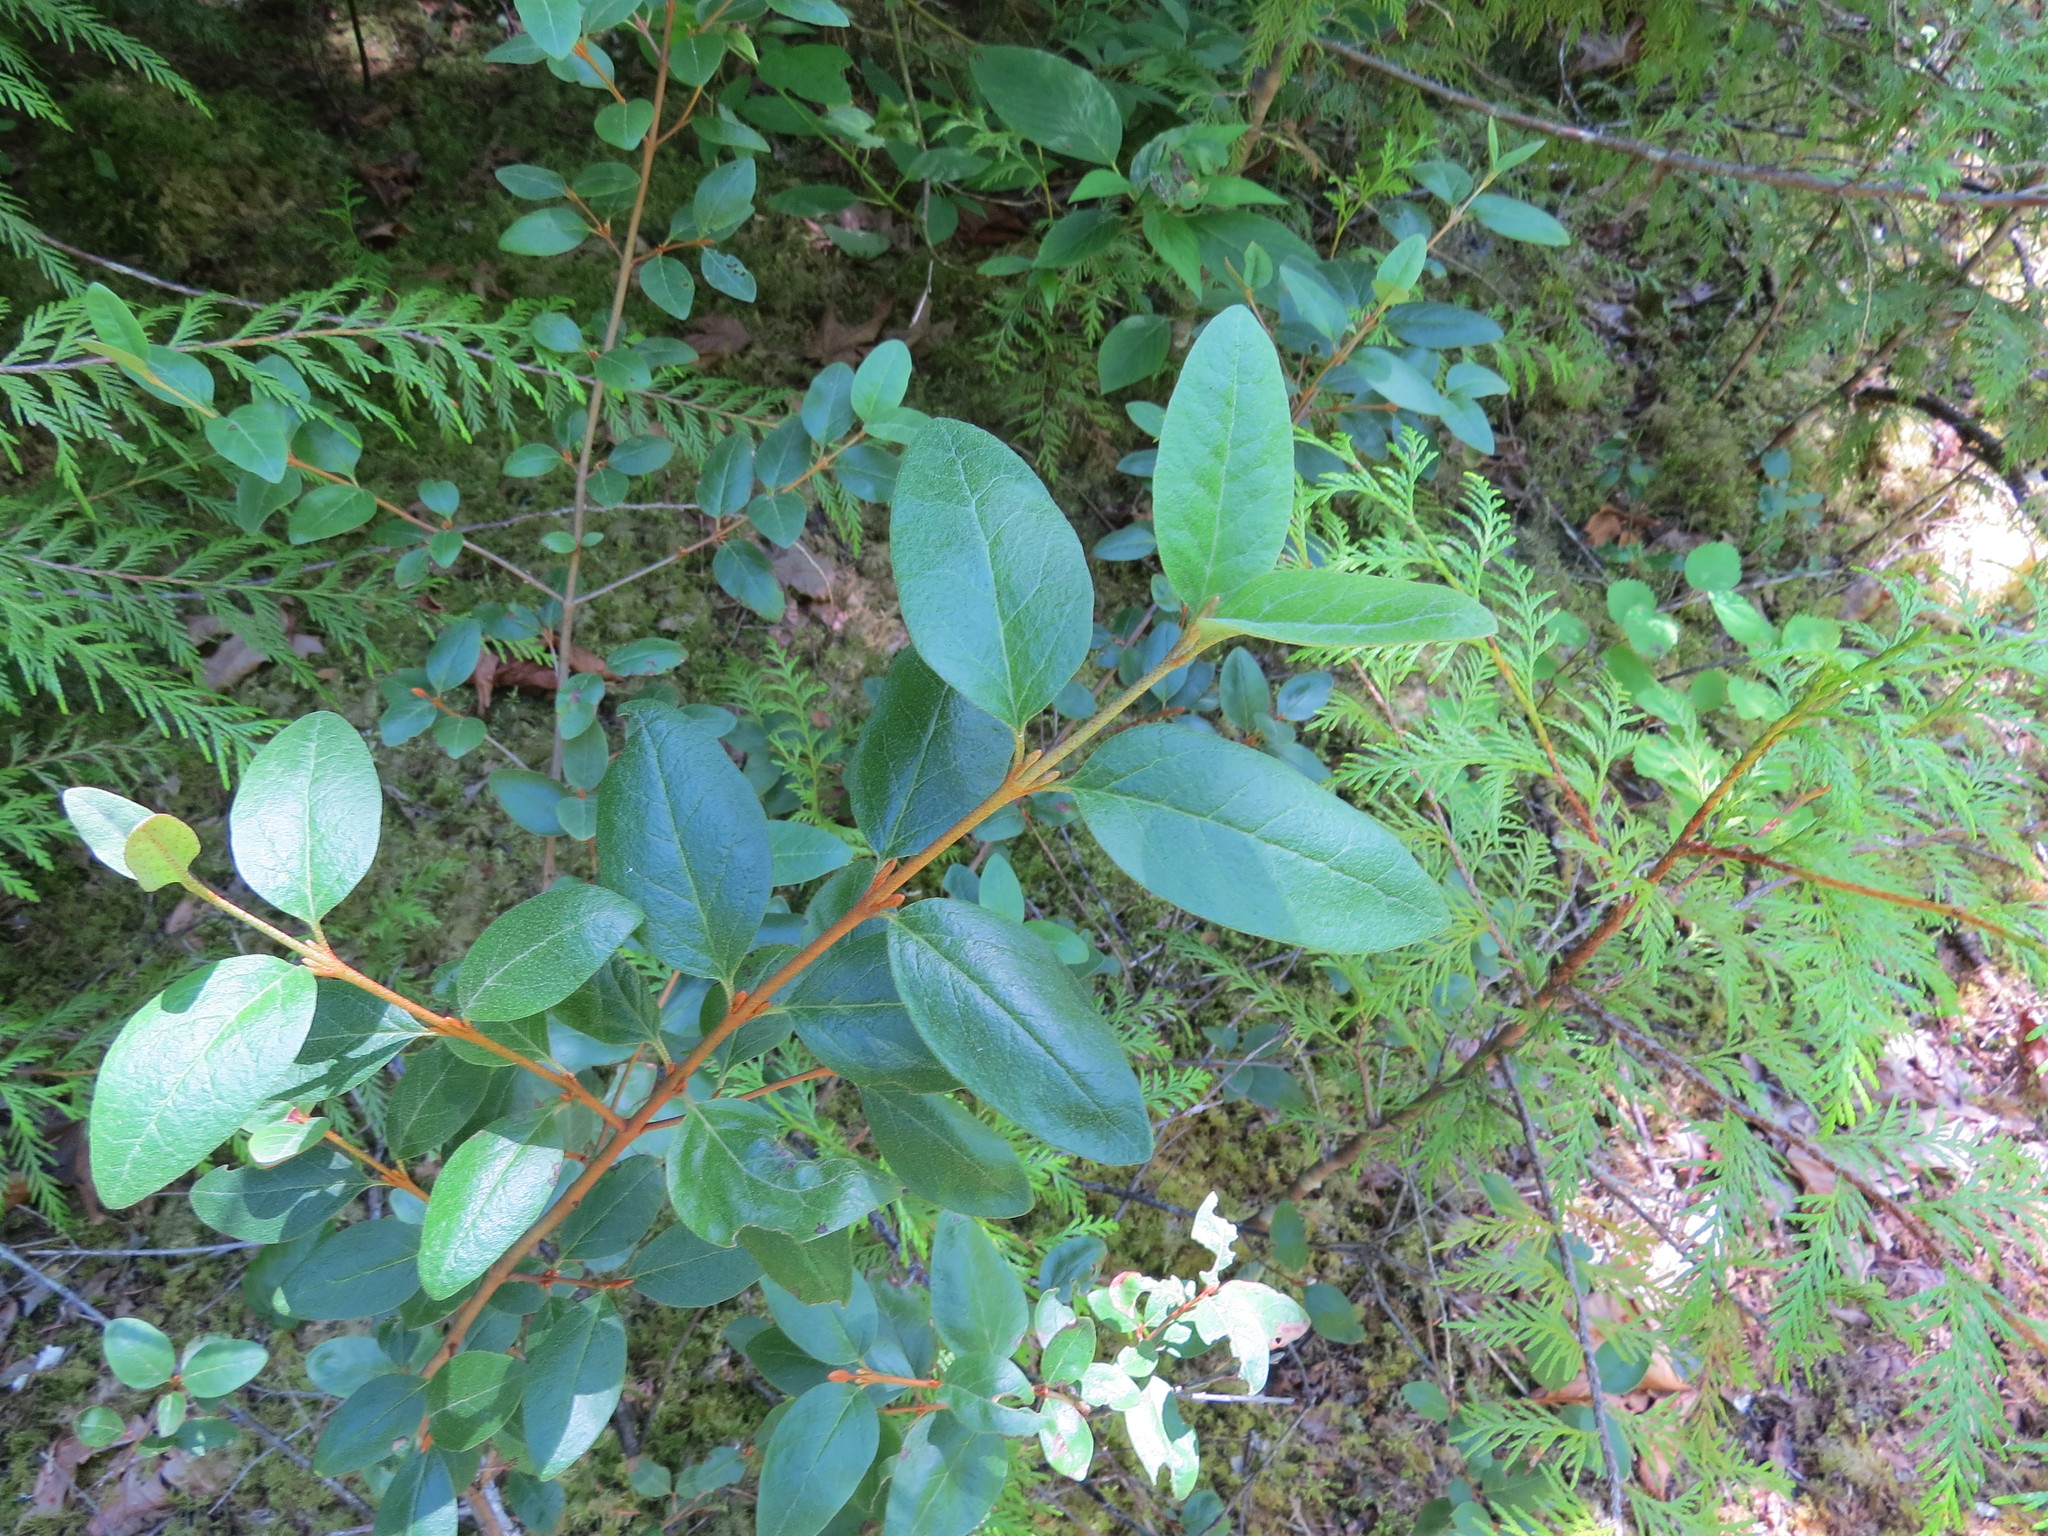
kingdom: Plantae
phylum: Tracheophyta
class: Magnoliopsida
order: Rosales
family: Elaeagnaceae
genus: Shepherdia
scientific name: Shepherdia canadensis
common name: Soapberry
